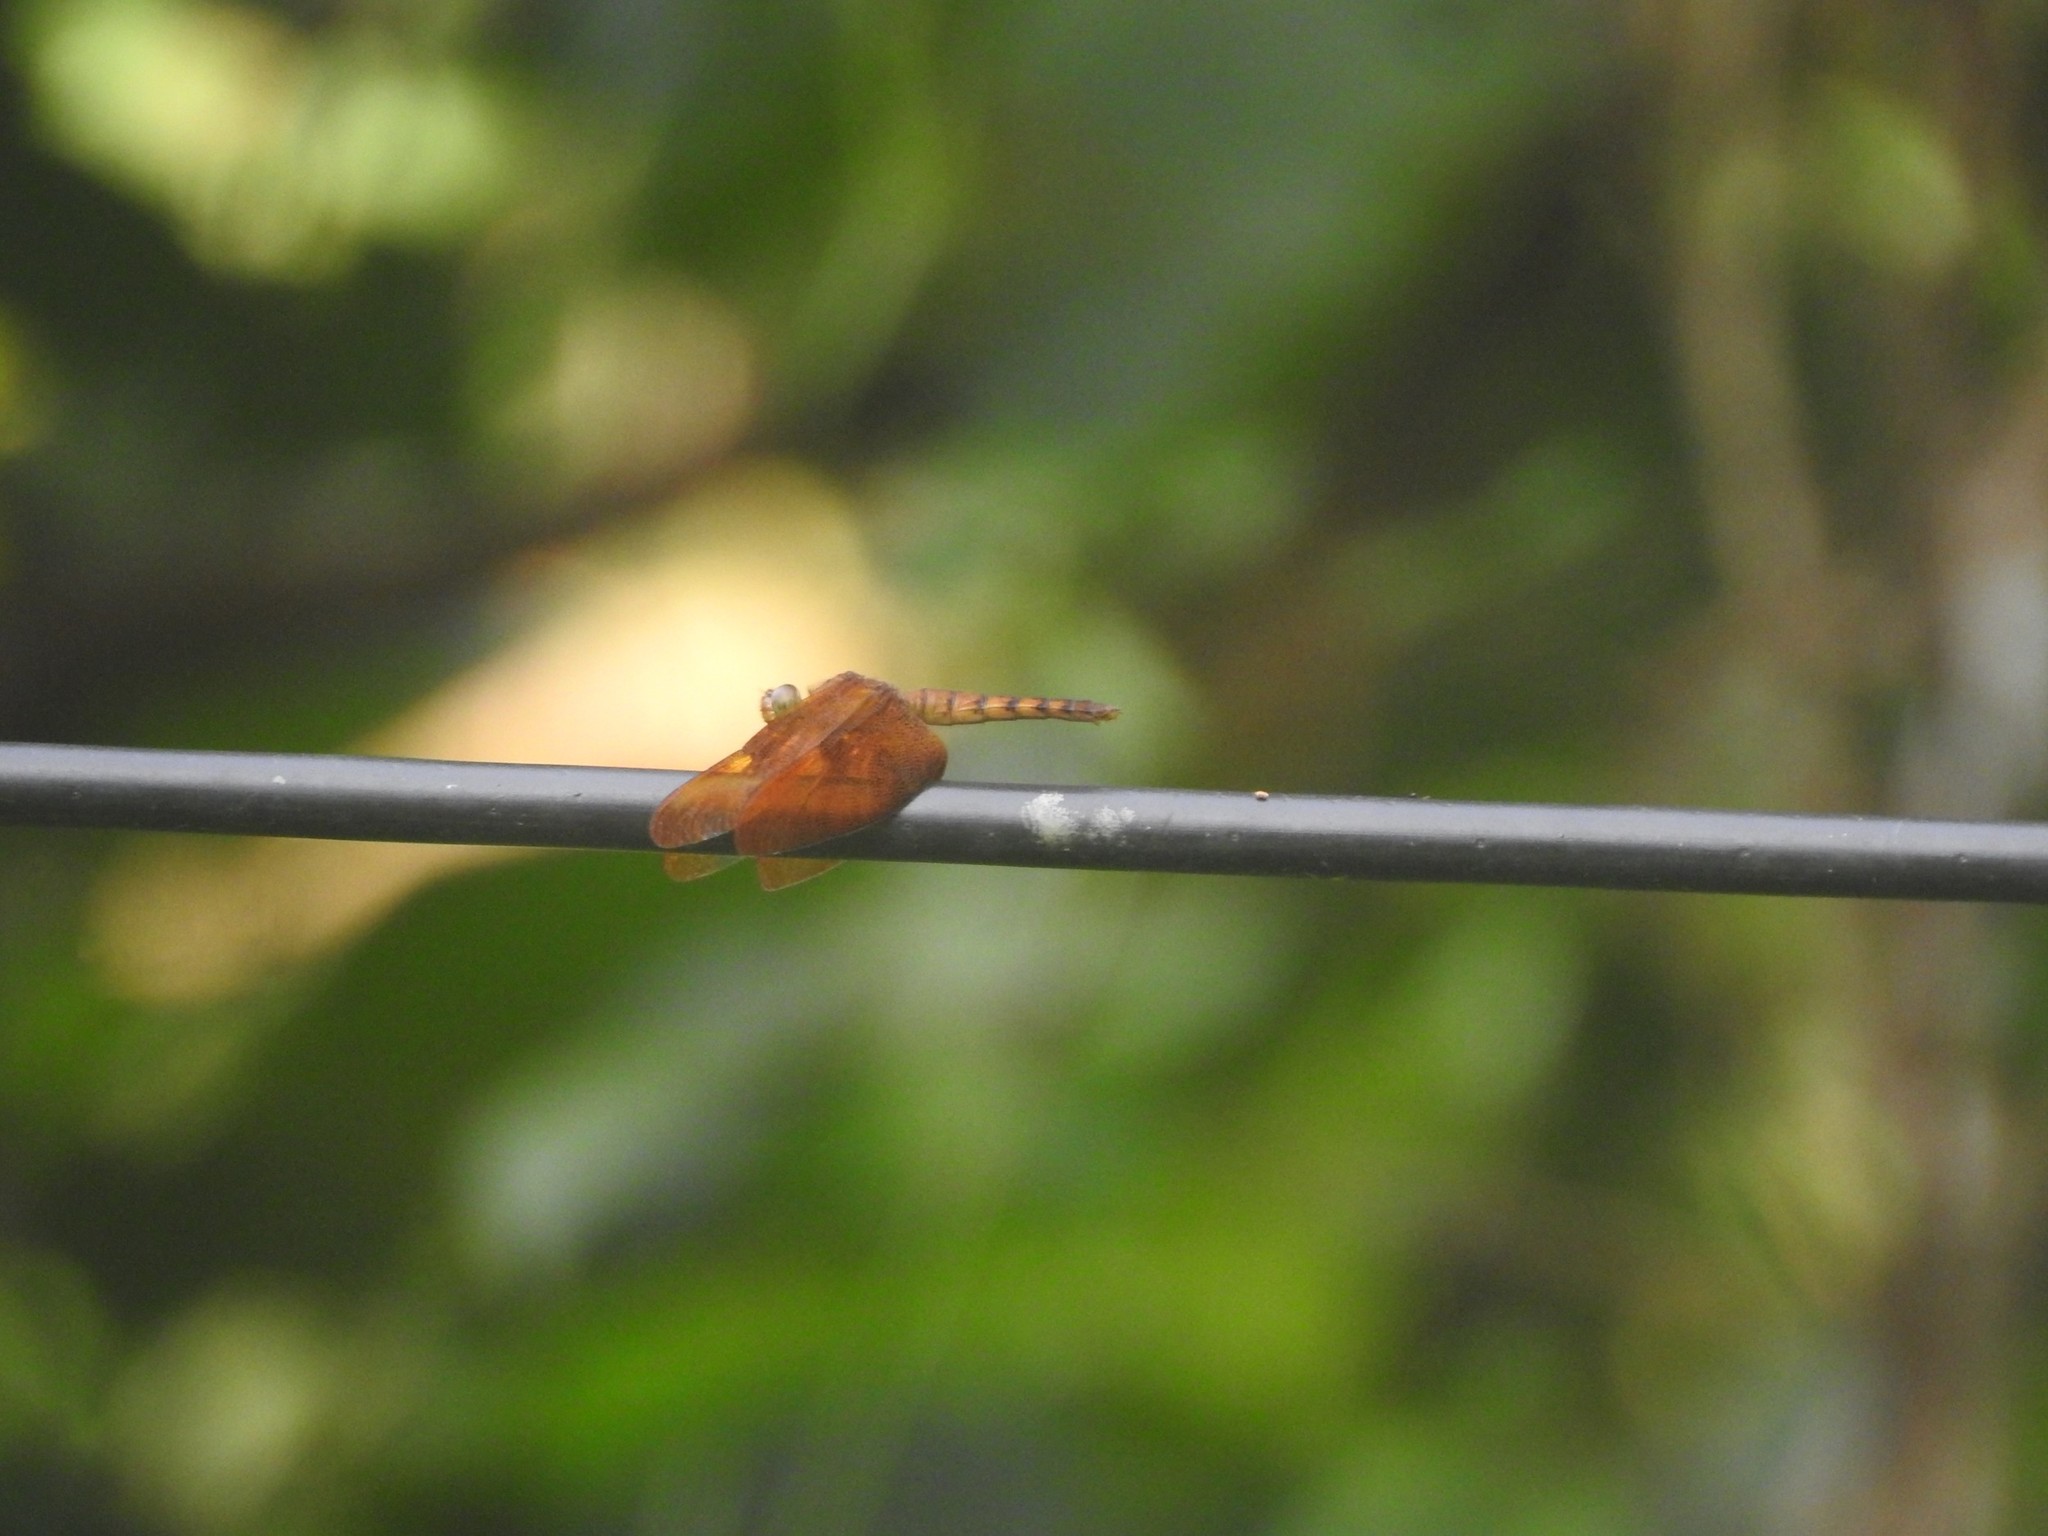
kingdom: Animalia
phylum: Arthropoda
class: Insecta
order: Odonata
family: Libellulidae
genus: Neurothemis
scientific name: Neurothemis fulvia
